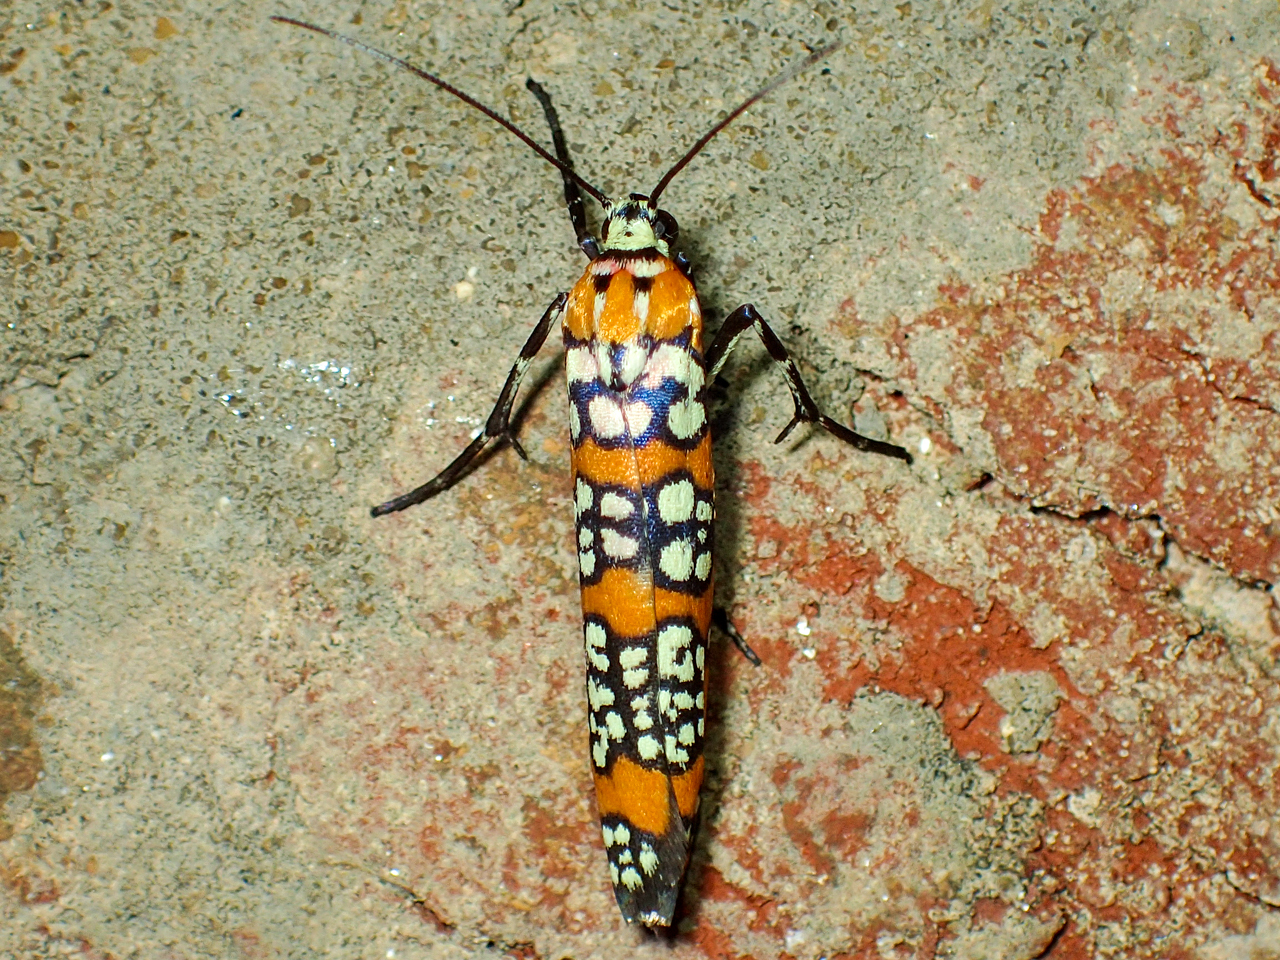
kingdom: Animalia
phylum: Arthropoda
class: Insecta
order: Lepidoptera
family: Attevidae
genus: Atteva
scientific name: Atteva punctella
